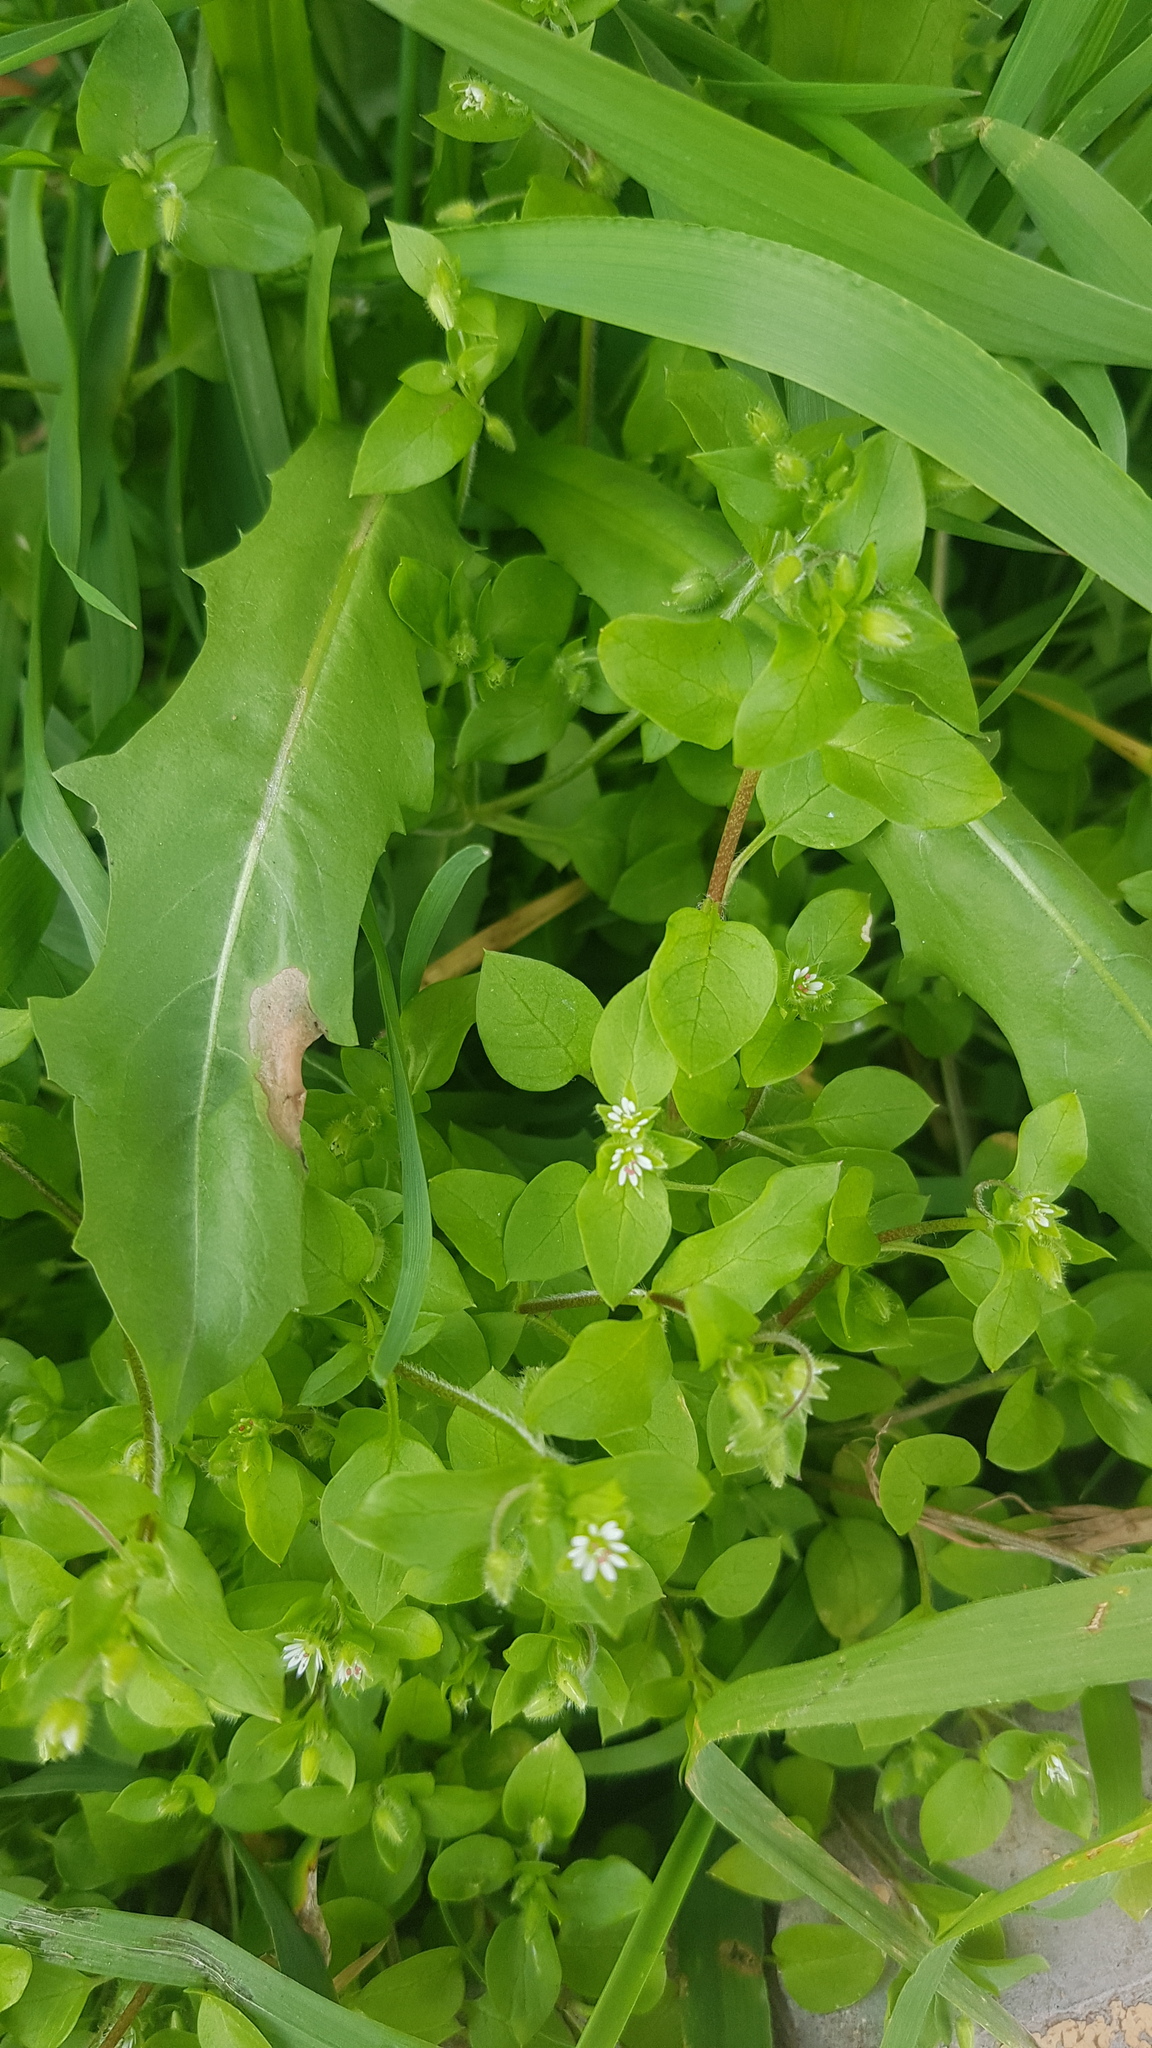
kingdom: Plantae
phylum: Tracheophyta
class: Magnoliopsida
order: Caryophyllales
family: Caryophyllaceae
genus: Stellaria
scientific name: Stellaria media
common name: Common chickweed
